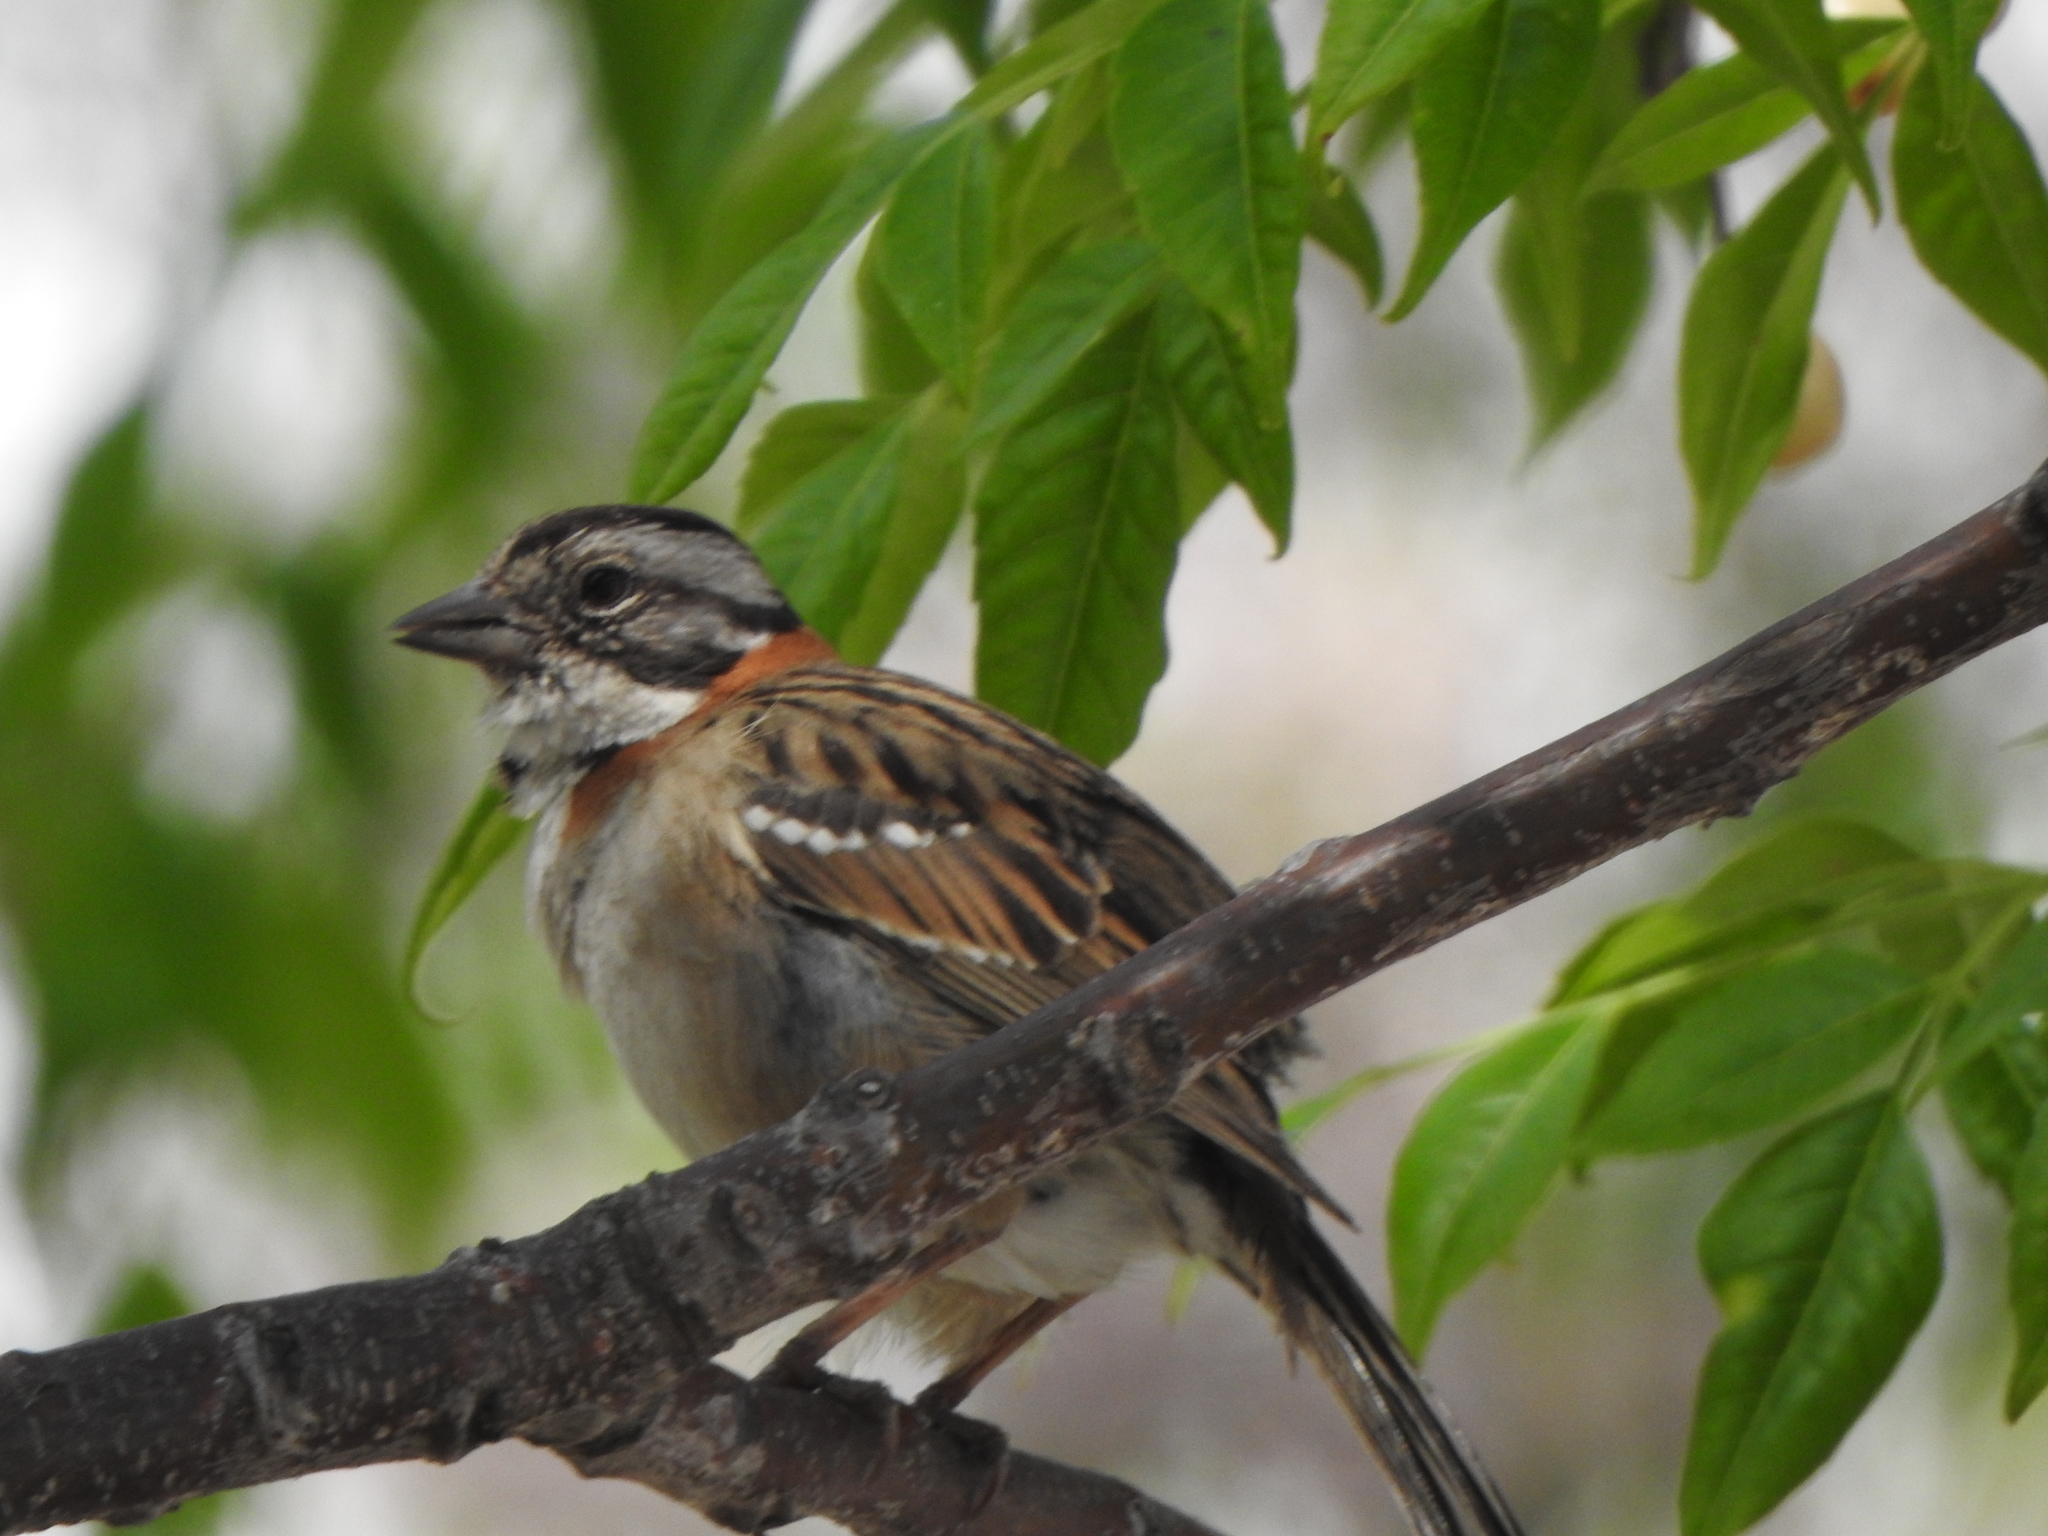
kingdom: Animalia
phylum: Chordata
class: Aves
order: Passeriformes
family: Passerellidae
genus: Zonotrichia
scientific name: Zonotrichia capensis
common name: Rufous-collared sparrow
